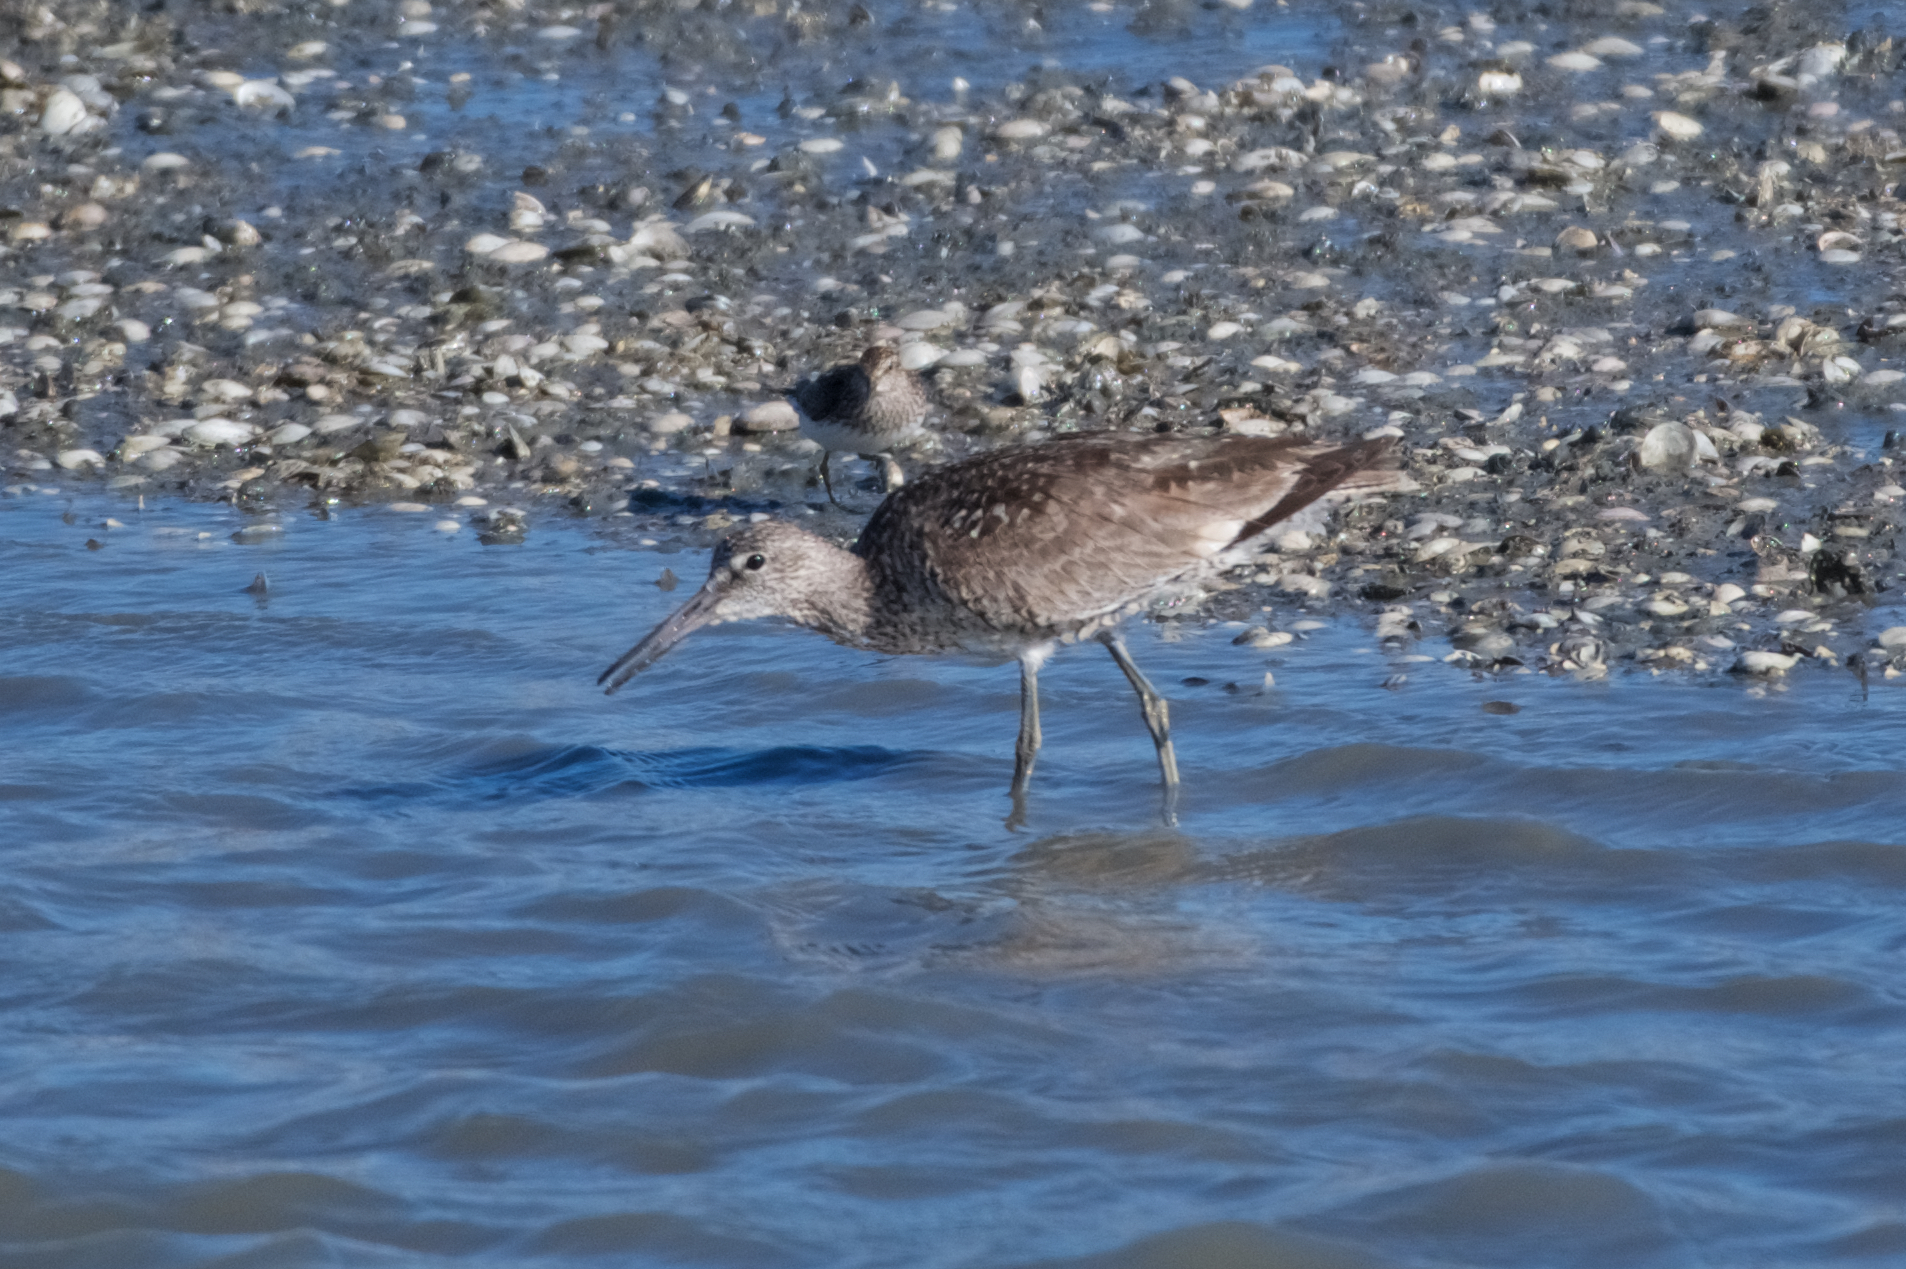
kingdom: Animalia
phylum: Chordata
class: Aves
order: Charadriiformes
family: Scolopacidae
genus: Tringa
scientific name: Tringa semipalmata
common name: Willet
